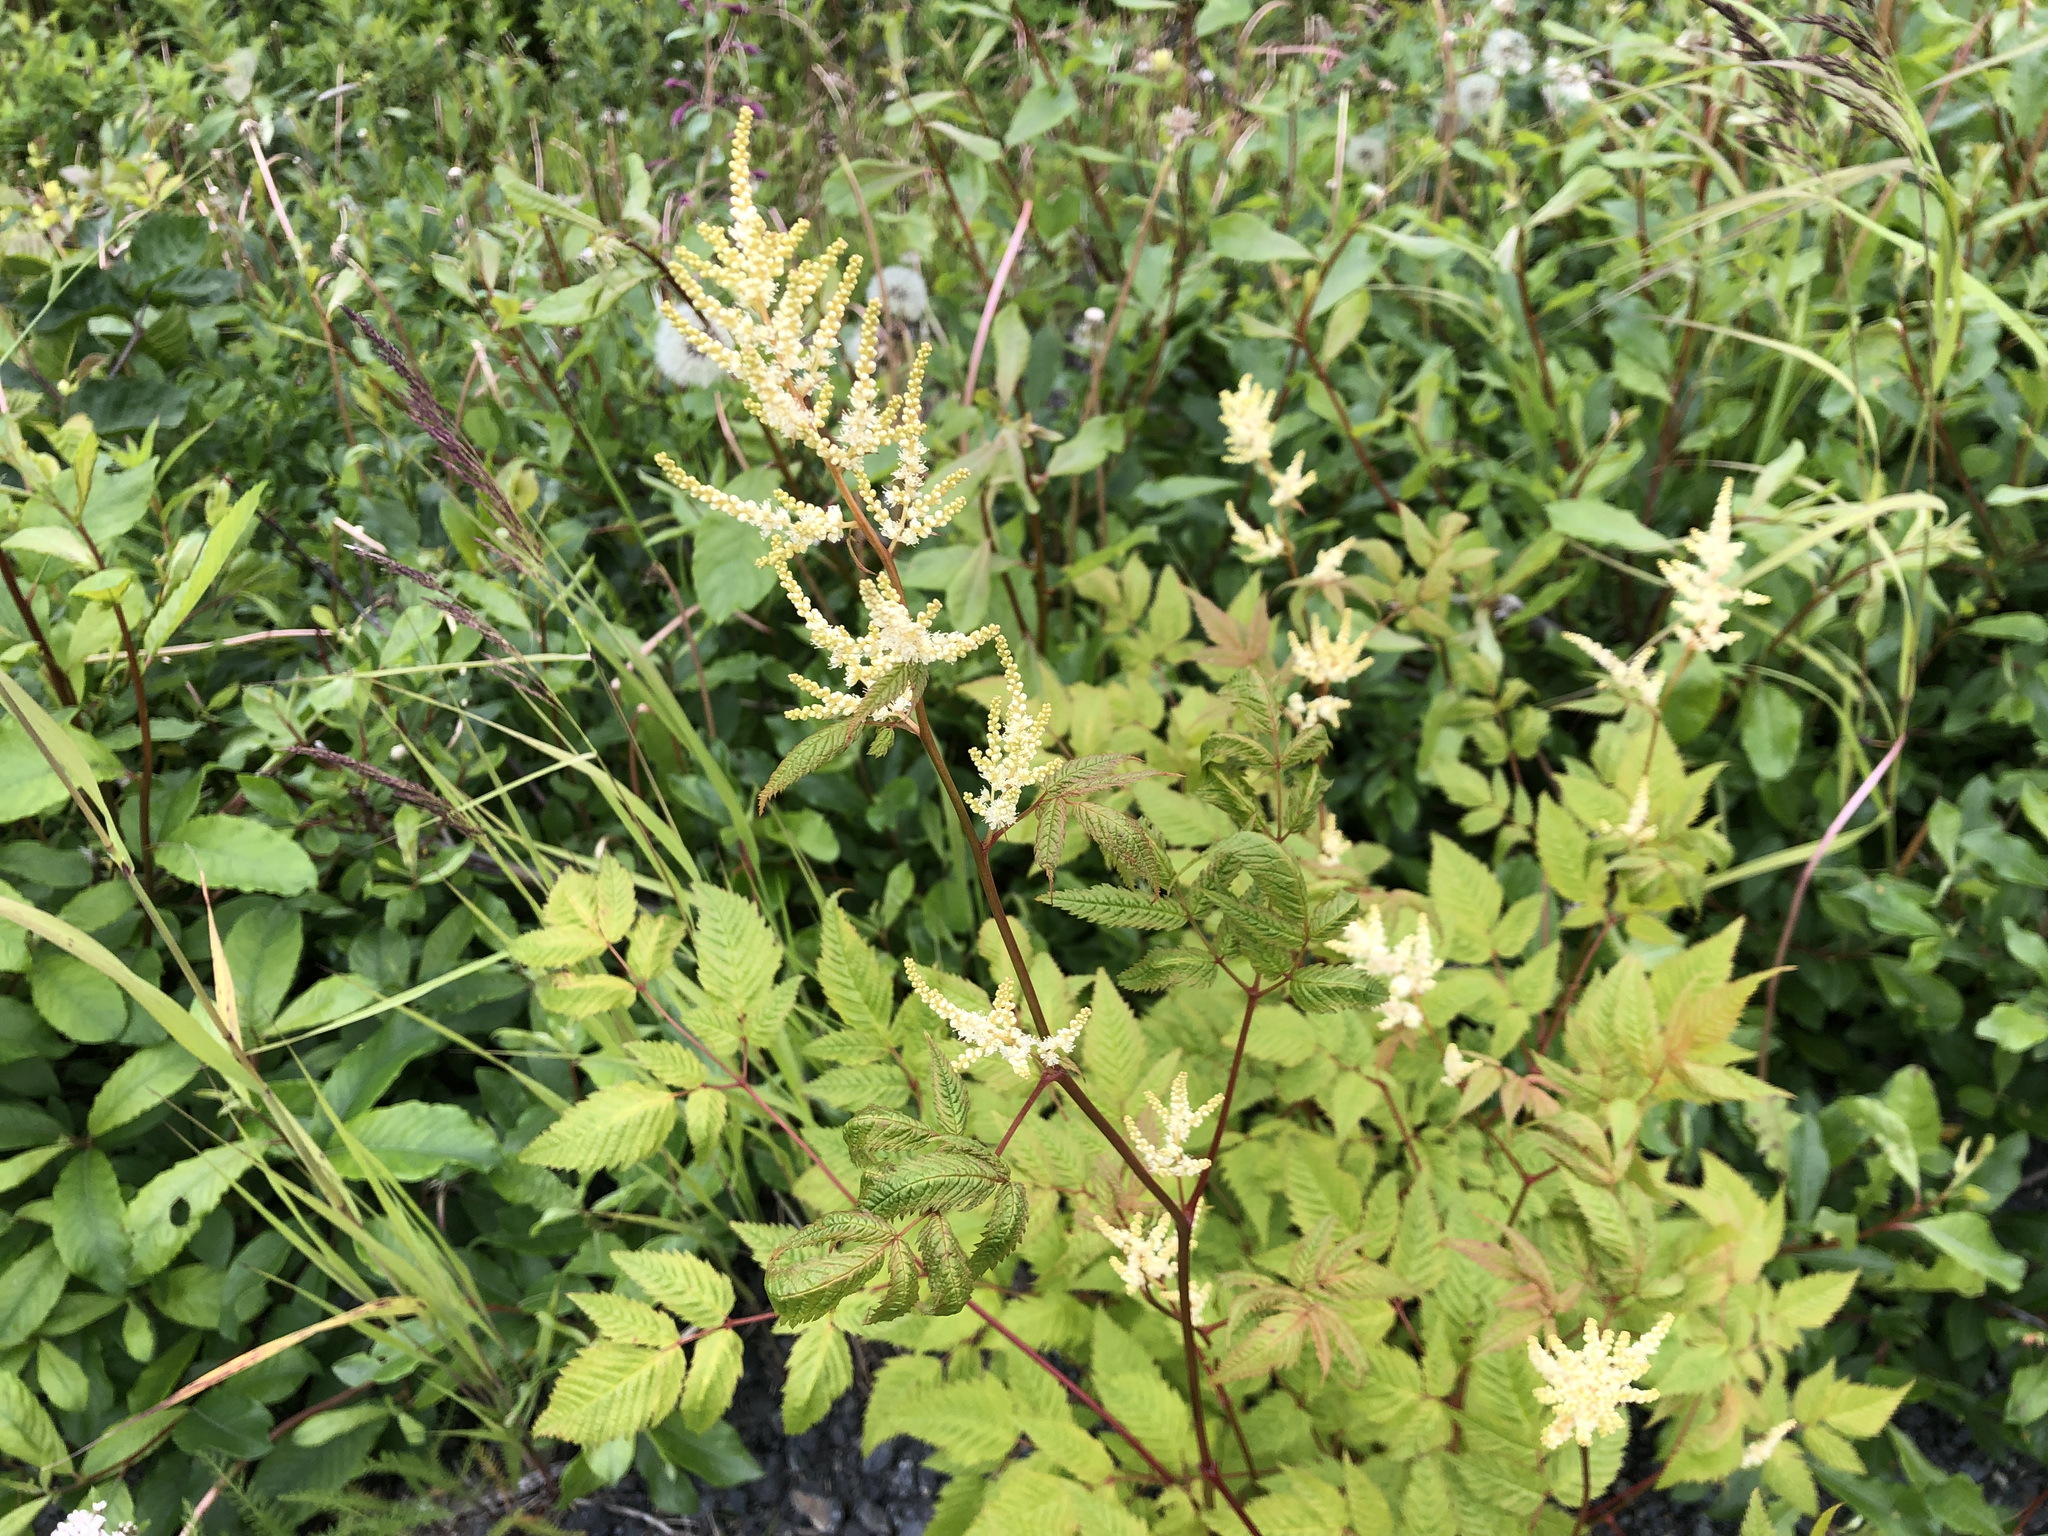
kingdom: Plantae
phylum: Tracheophyta
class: Magnoliopsida
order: Rosales
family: Rosaceae
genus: Aruncus
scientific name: Aruncus dioicus
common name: Buck's-beard
